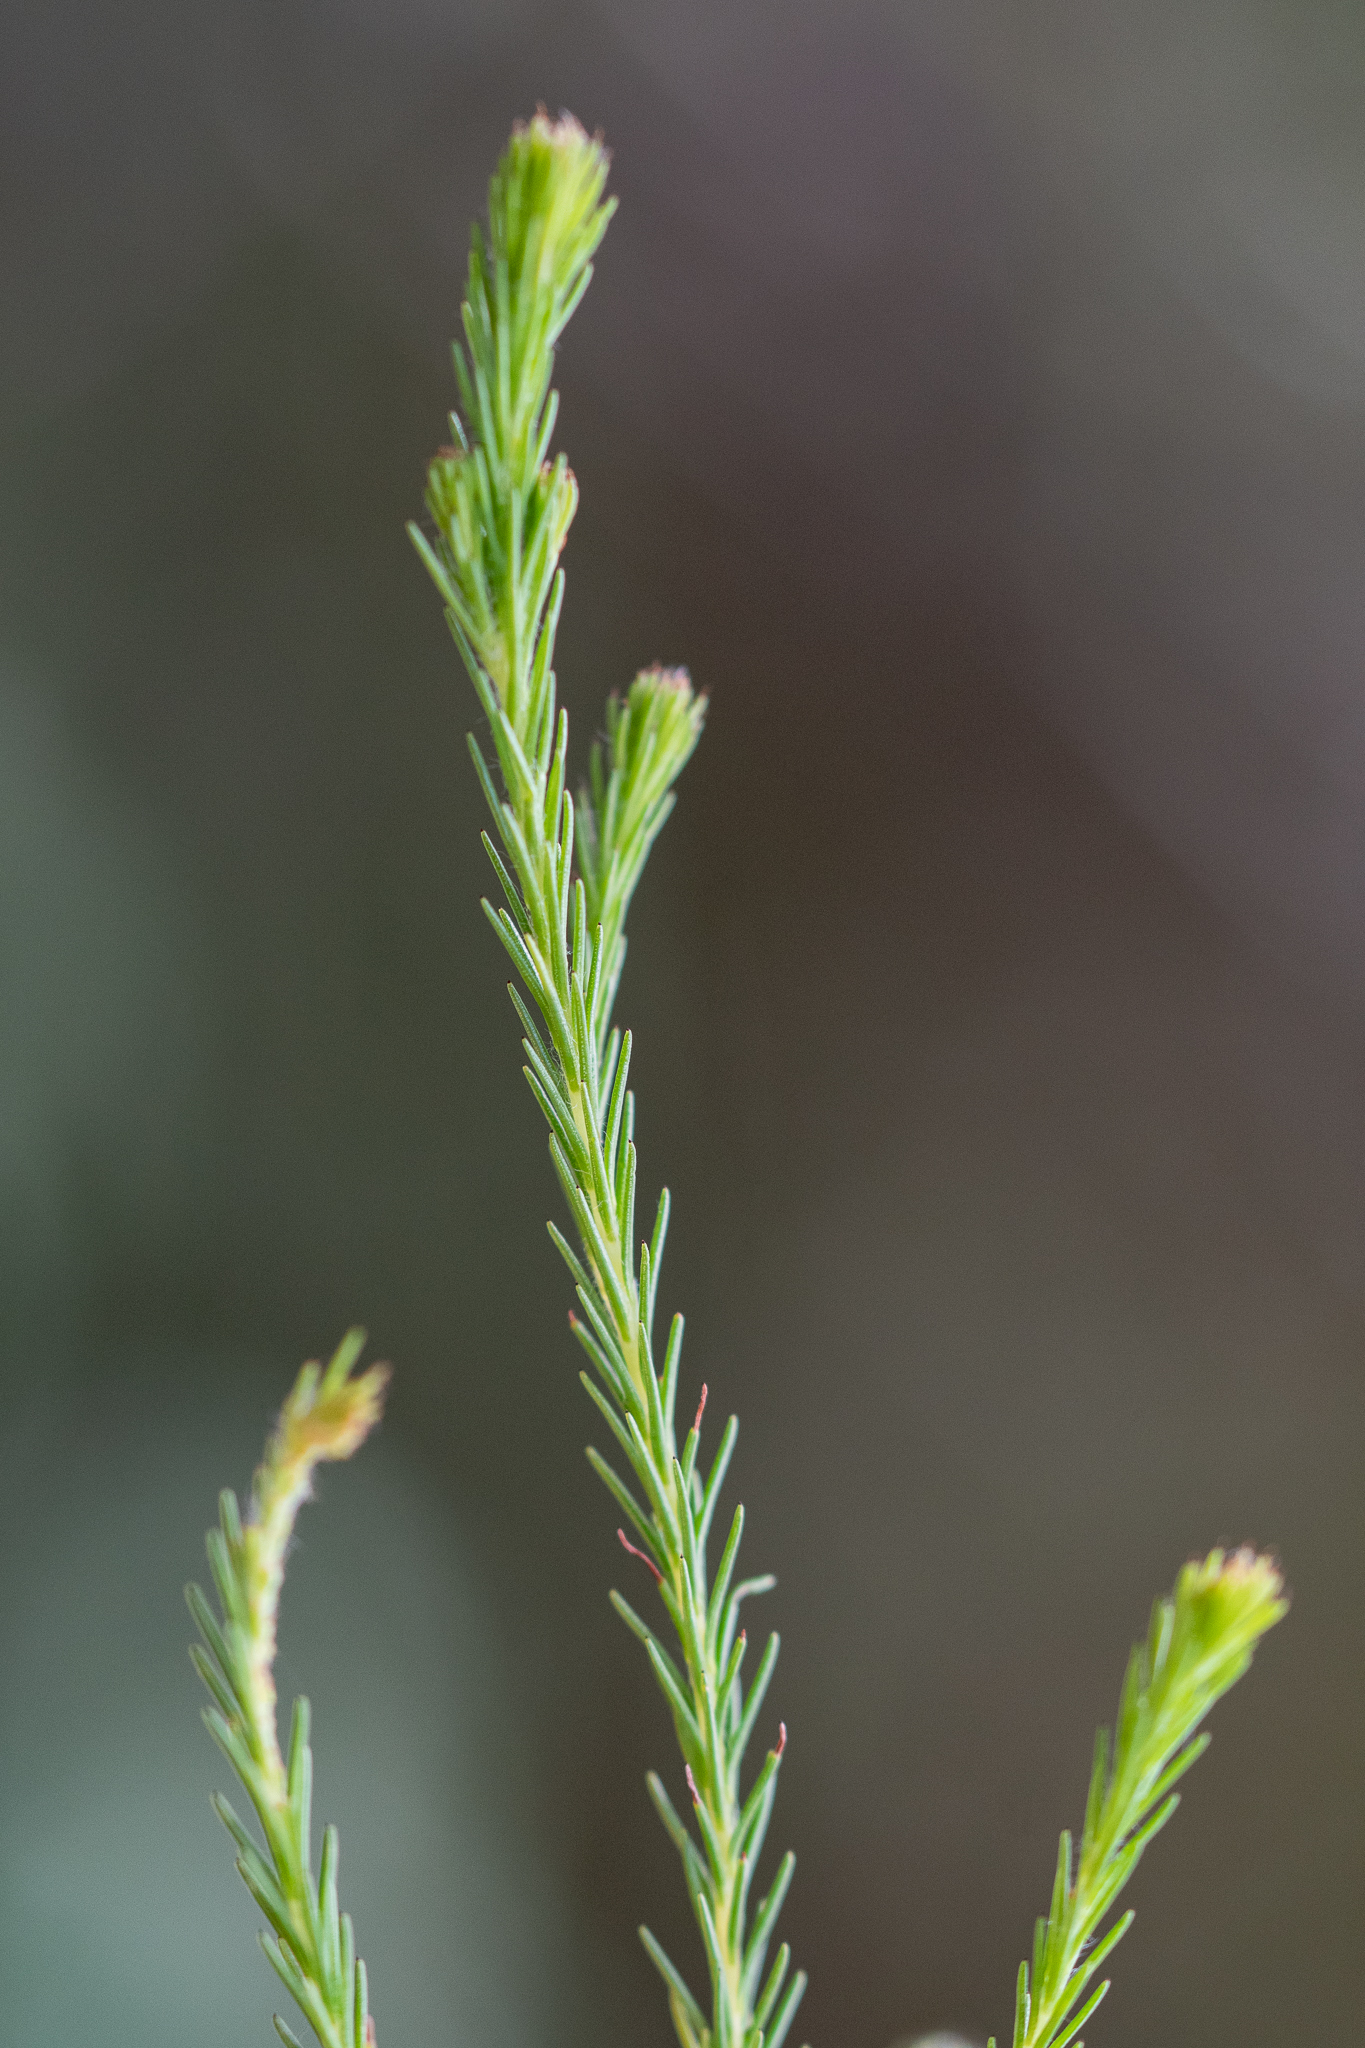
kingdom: Plantae
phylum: Tracheophyta
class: Magnoliopsida
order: Bruniales
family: Bruniaceae
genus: Berzelia
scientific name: Berzelia lanuginosa
